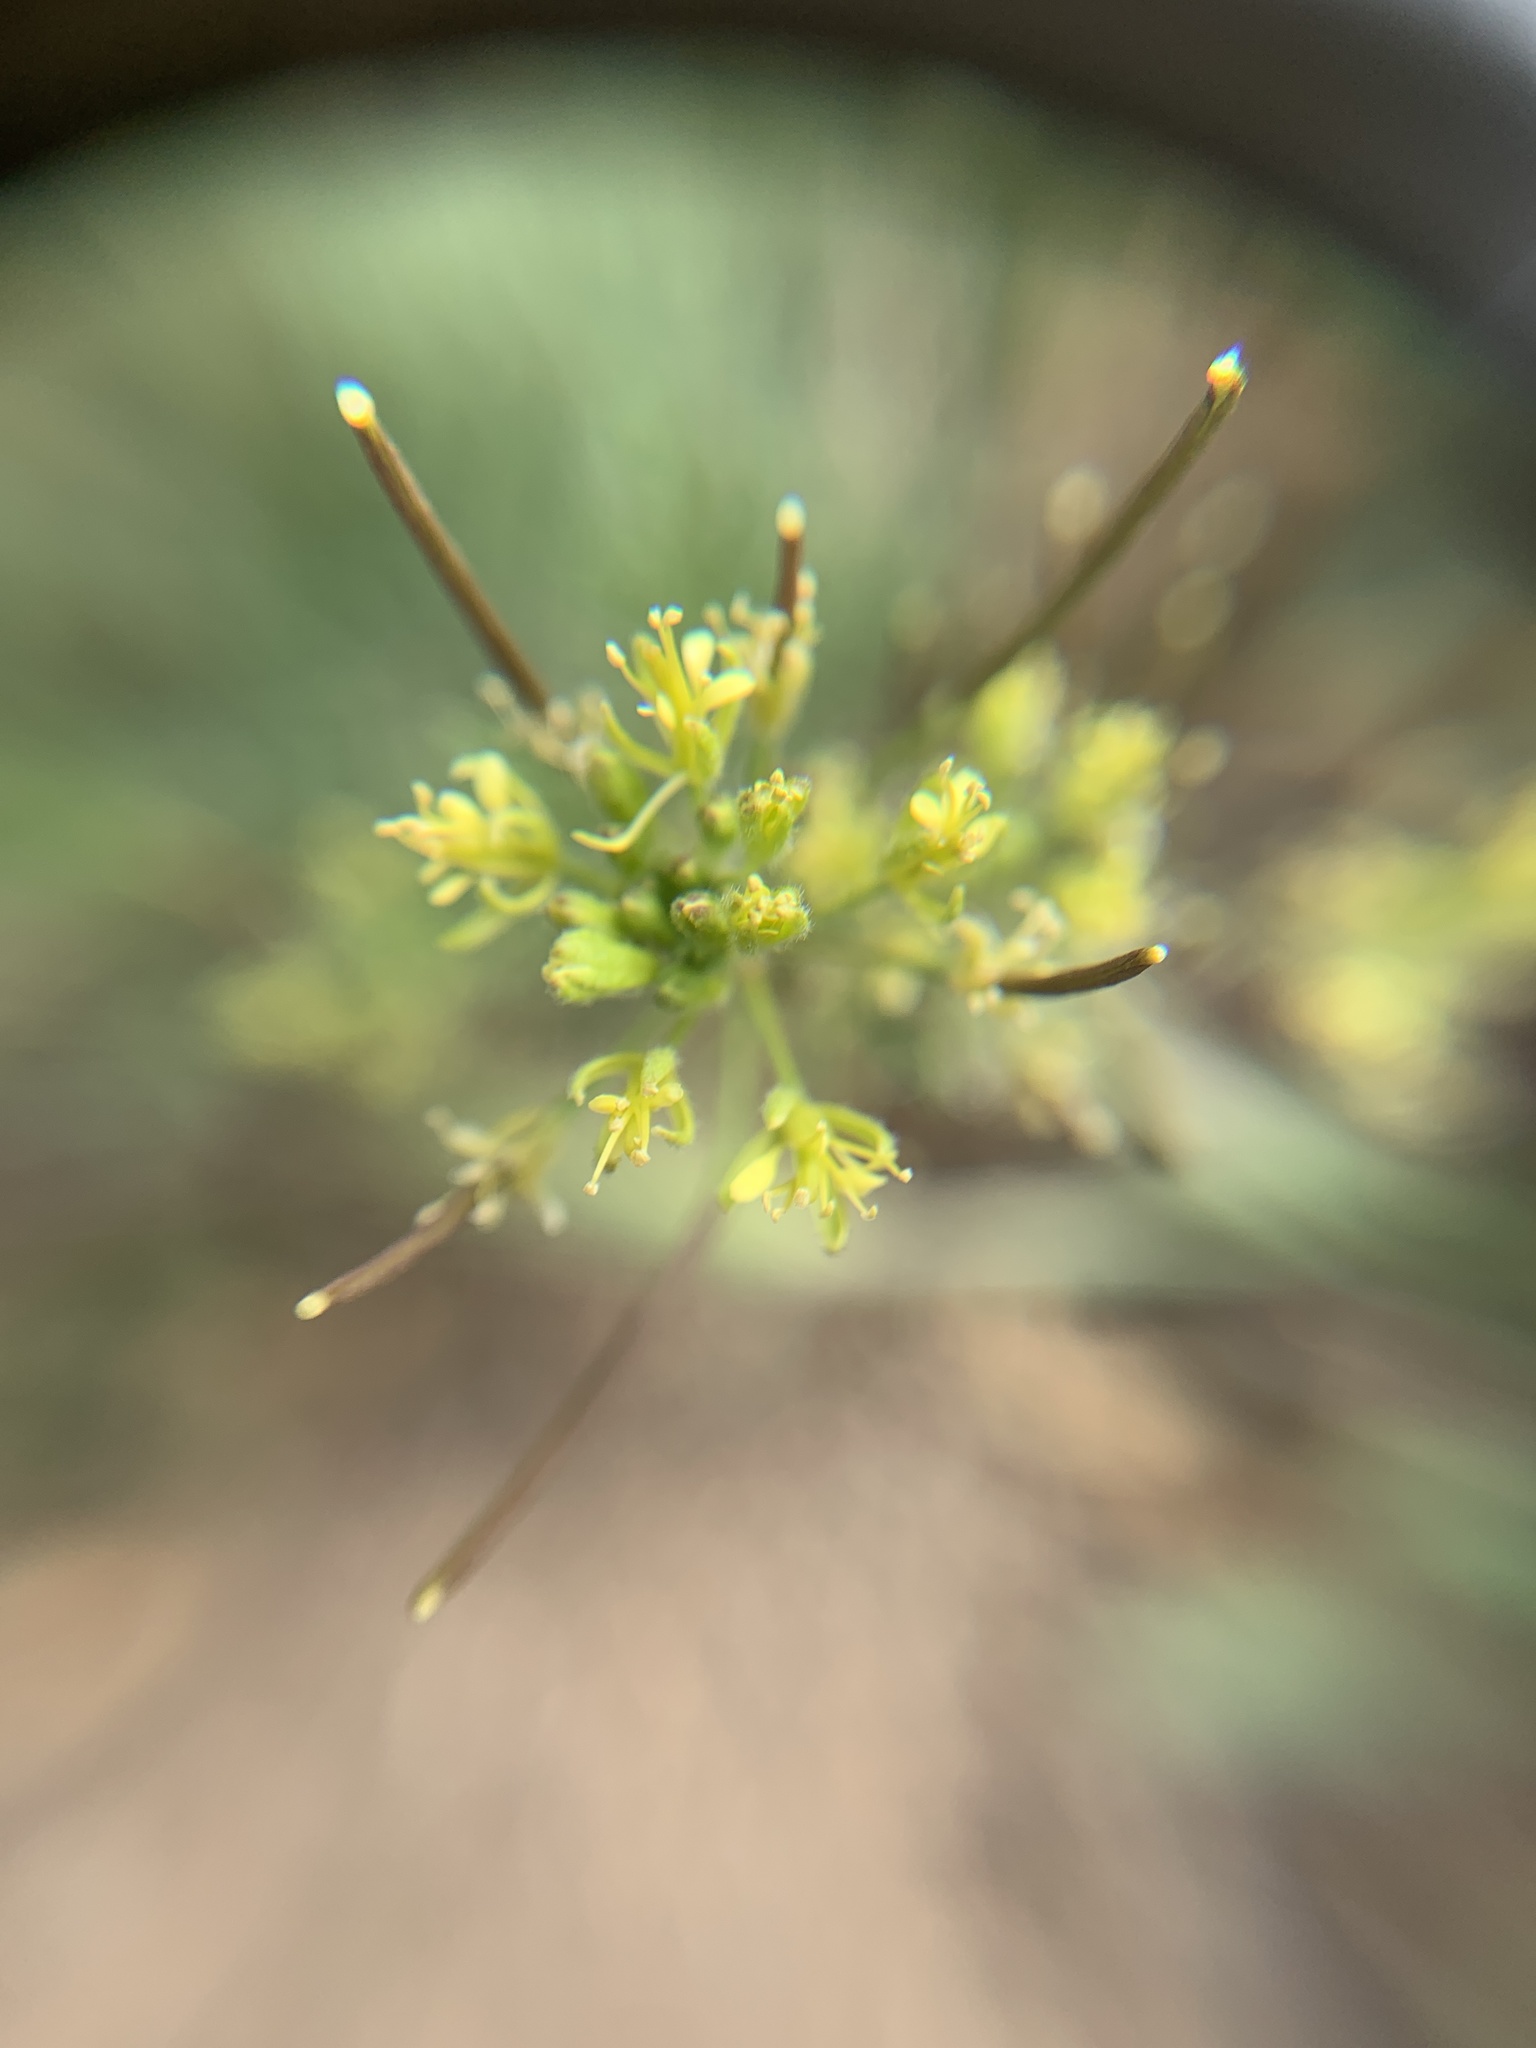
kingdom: Plantae
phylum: Tracheophyta
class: Magnoliopsida
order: Brassicales
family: Brassicaceae
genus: Descurainia
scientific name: Descurainia sophia
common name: Flixweed
